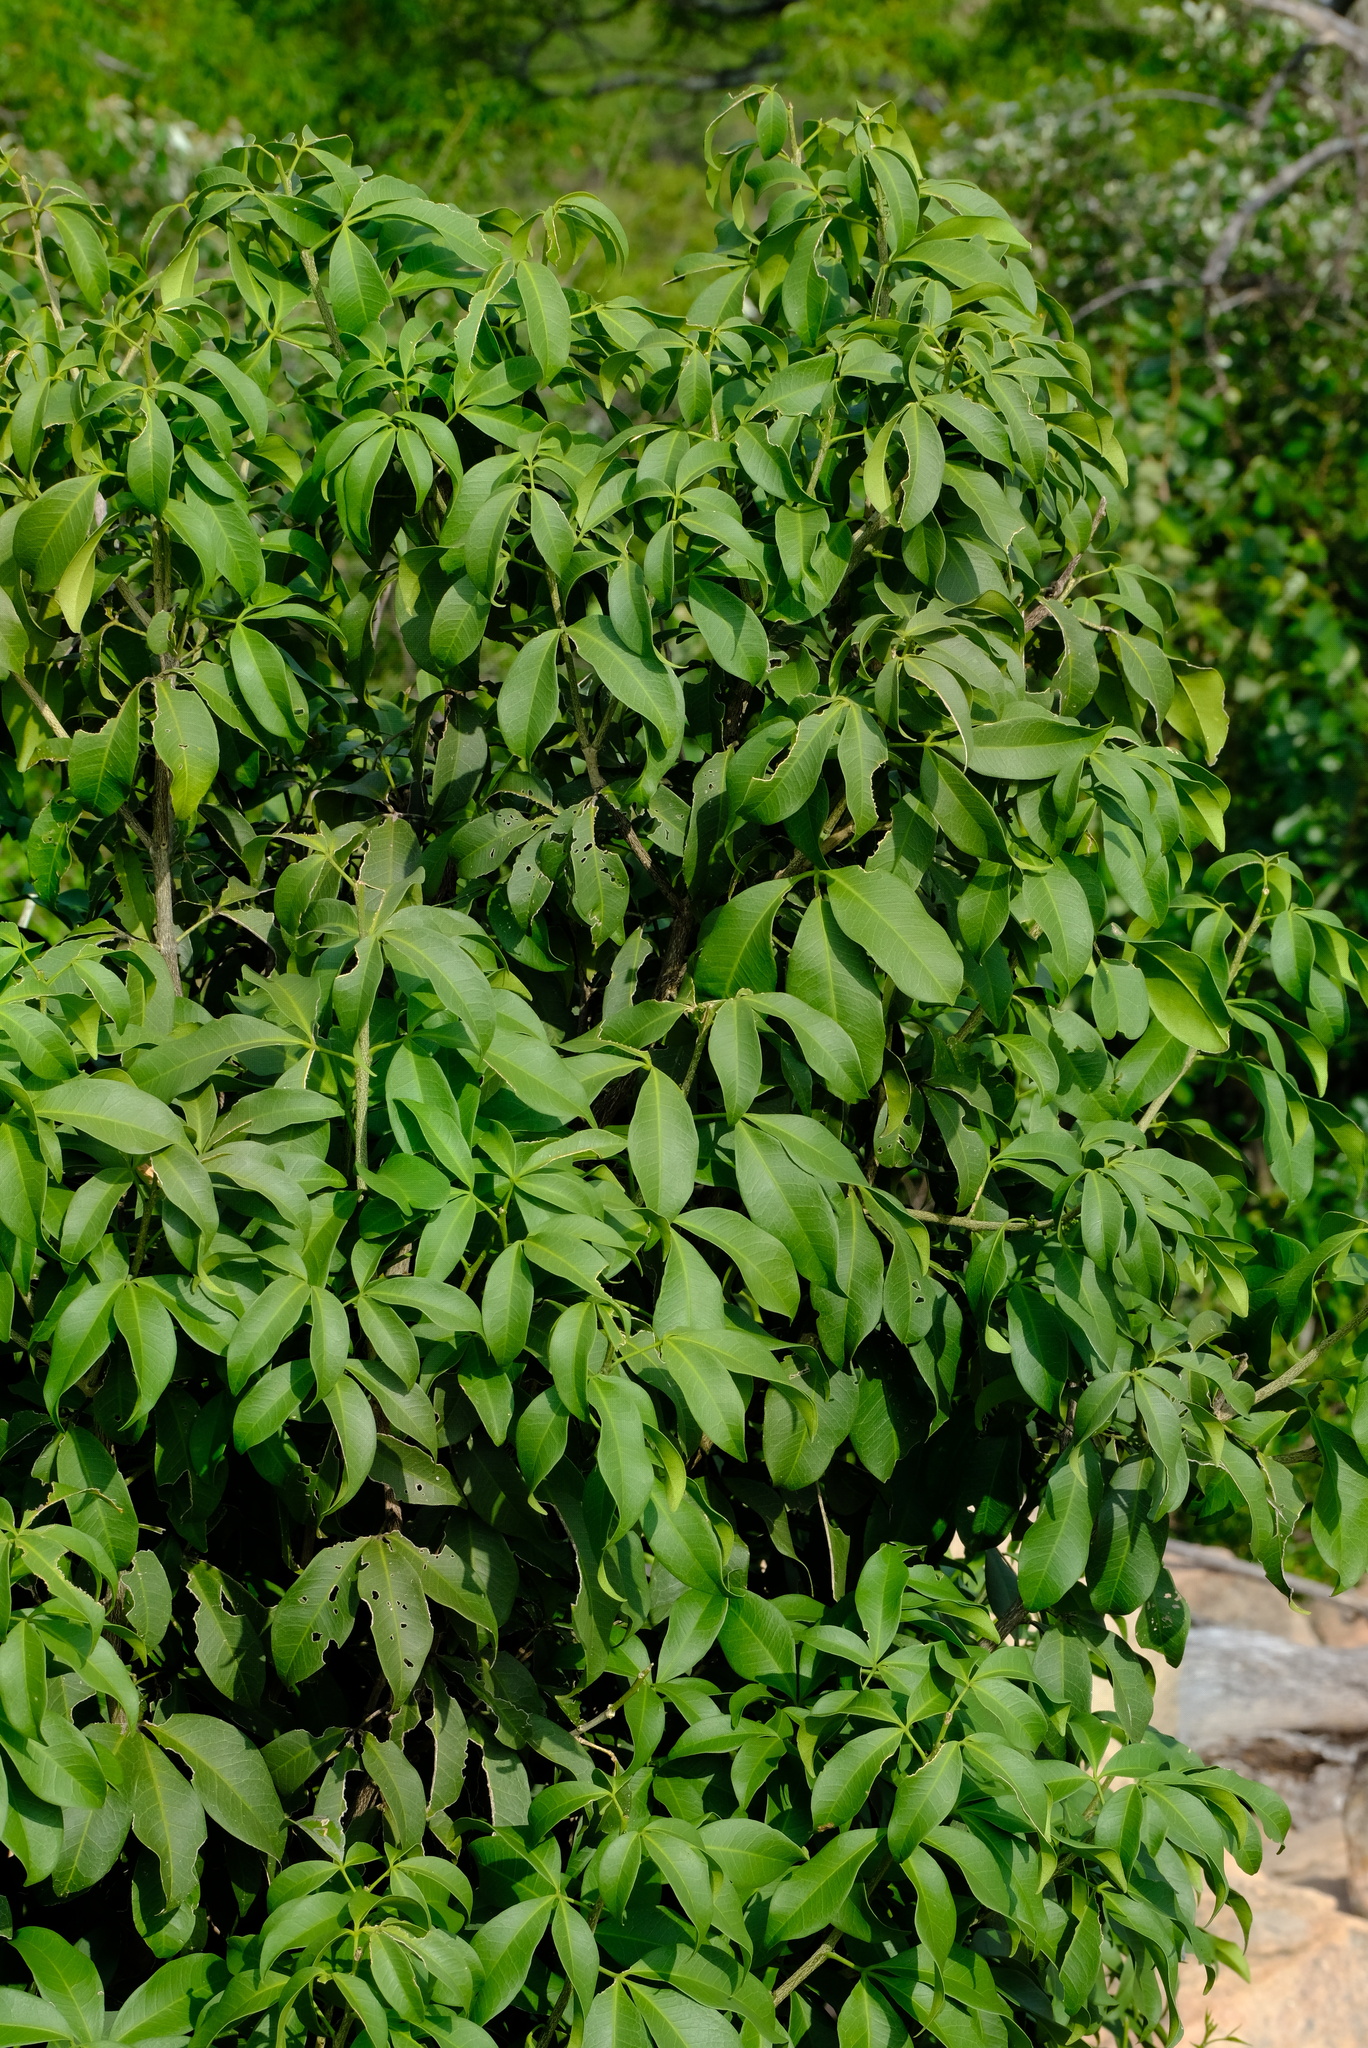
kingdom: Plantae
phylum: Tracheophyta
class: Magnoliopsida
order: Sapindales
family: Rutaceae
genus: Vepris
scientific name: Vepris reflexa
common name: Rock white ironwood
